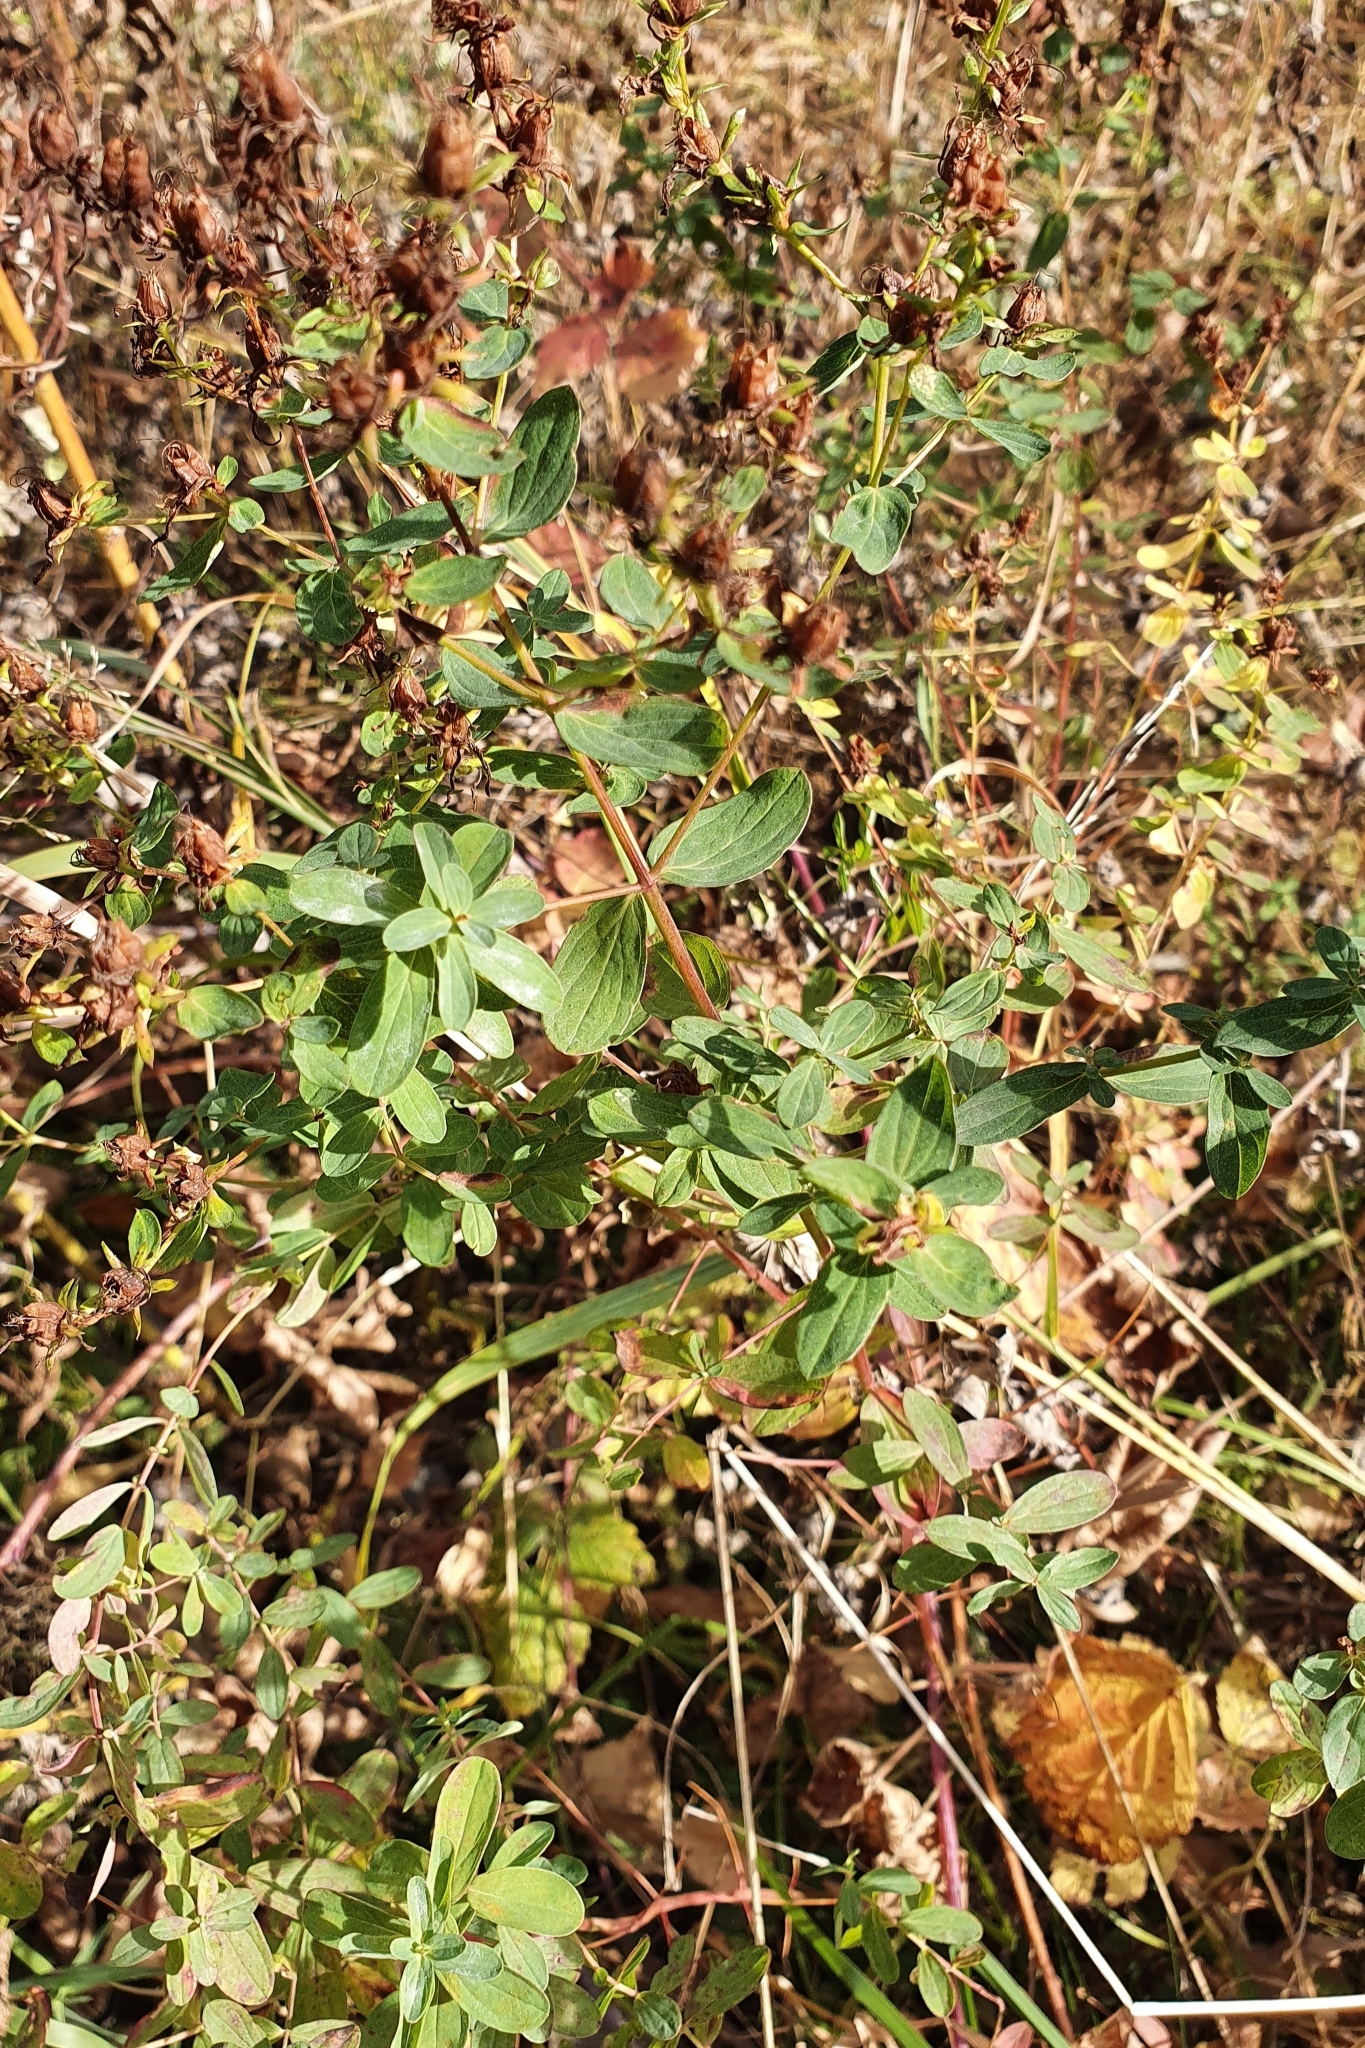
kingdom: Plantae
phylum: Tracheophyta
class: Magnoliopsida
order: Malpighiales
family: Hypericaceae
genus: Hypericum
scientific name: Hypericum perforatum
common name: Common st. johnswort
